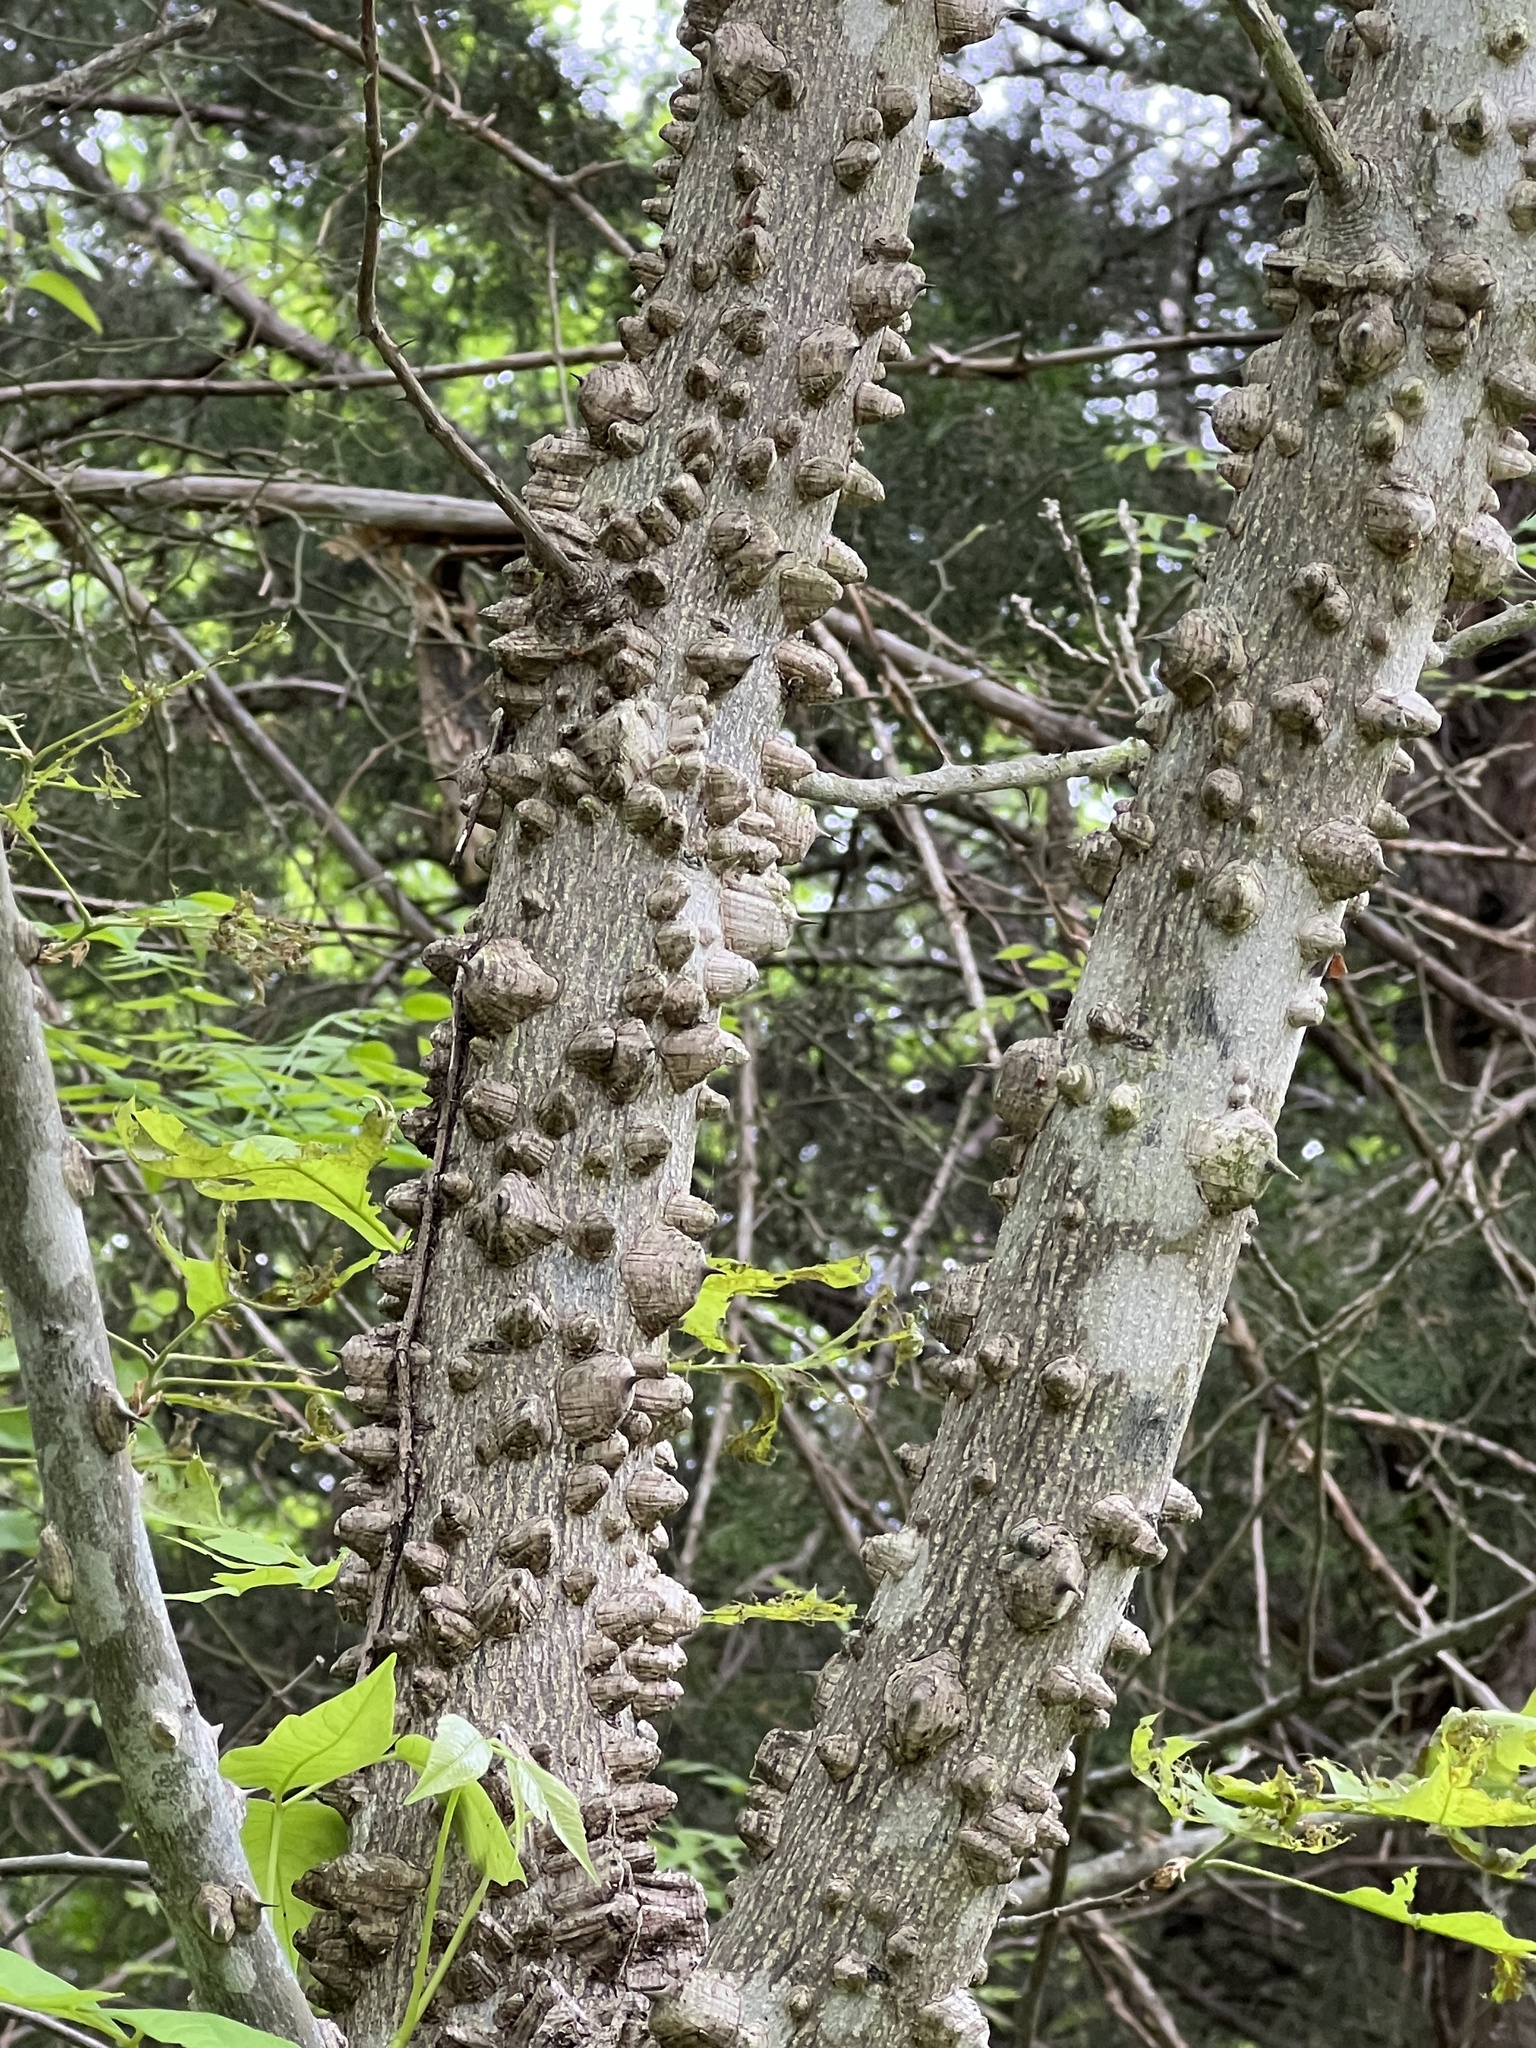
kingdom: Plantae
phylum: Tracheophyta
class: Magnoliopsida
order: Sapindales
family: Rutaceae
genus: Zanthoxylum
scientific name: Zanthoxylum clava-herculis
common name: Hercules'-club
